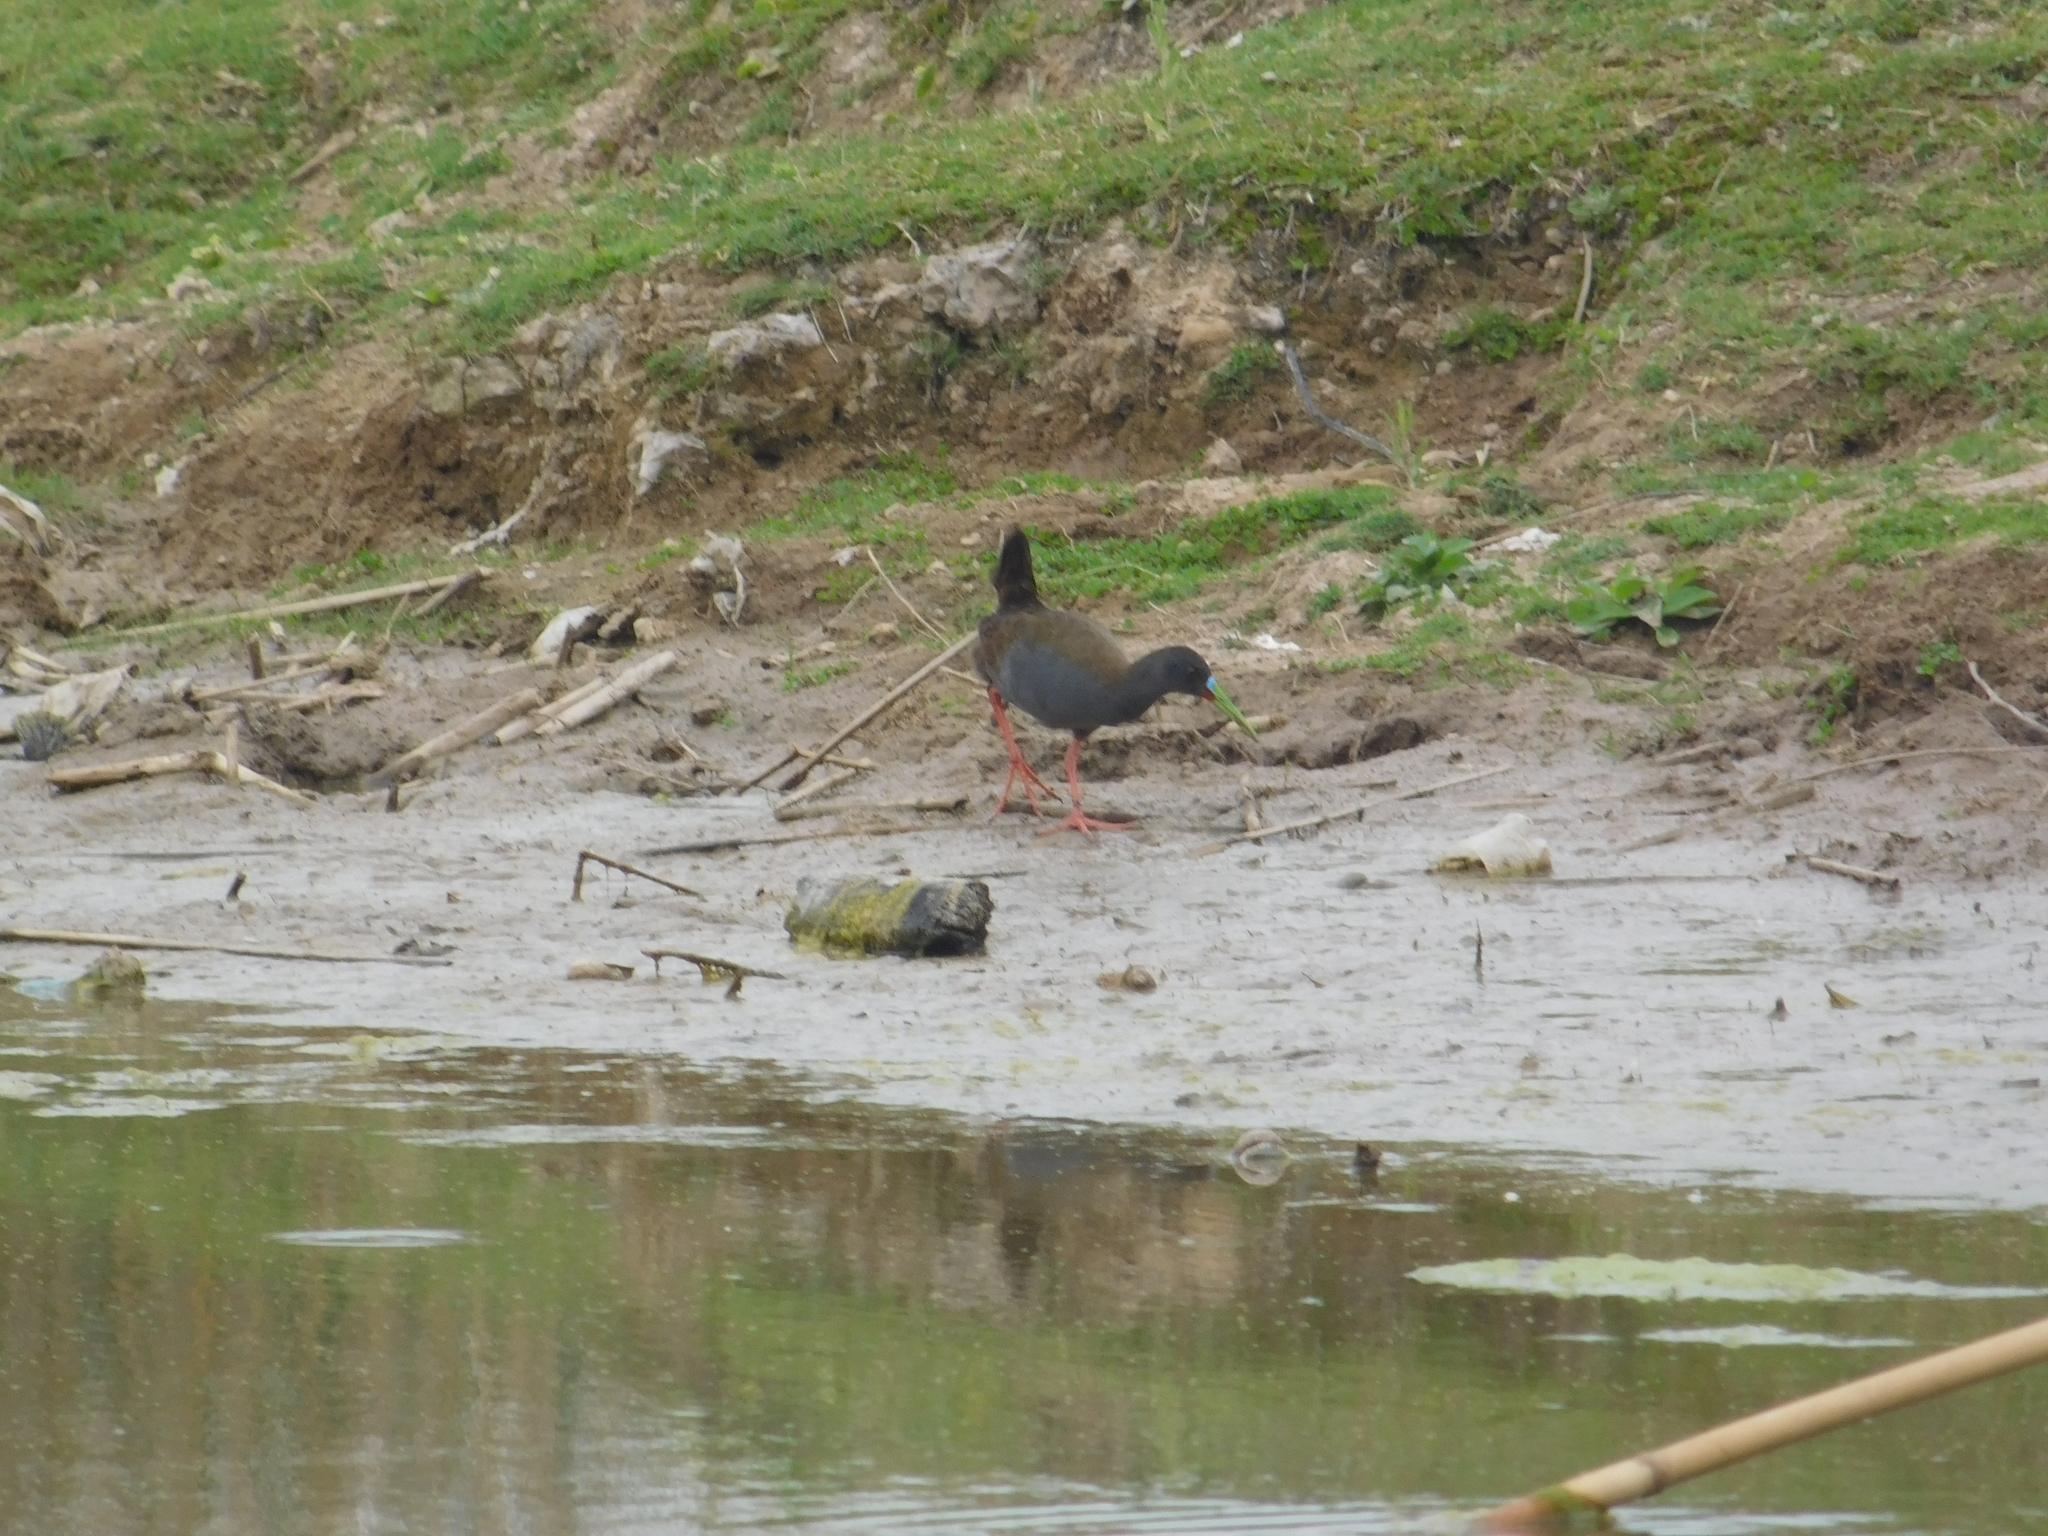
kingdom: Animalia
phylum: Chordata
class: Aves
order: Gruiformes
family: Rallidae
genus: Pardirallus
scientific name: Pardirallus sanguinolentus
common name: Plumbeous rail
